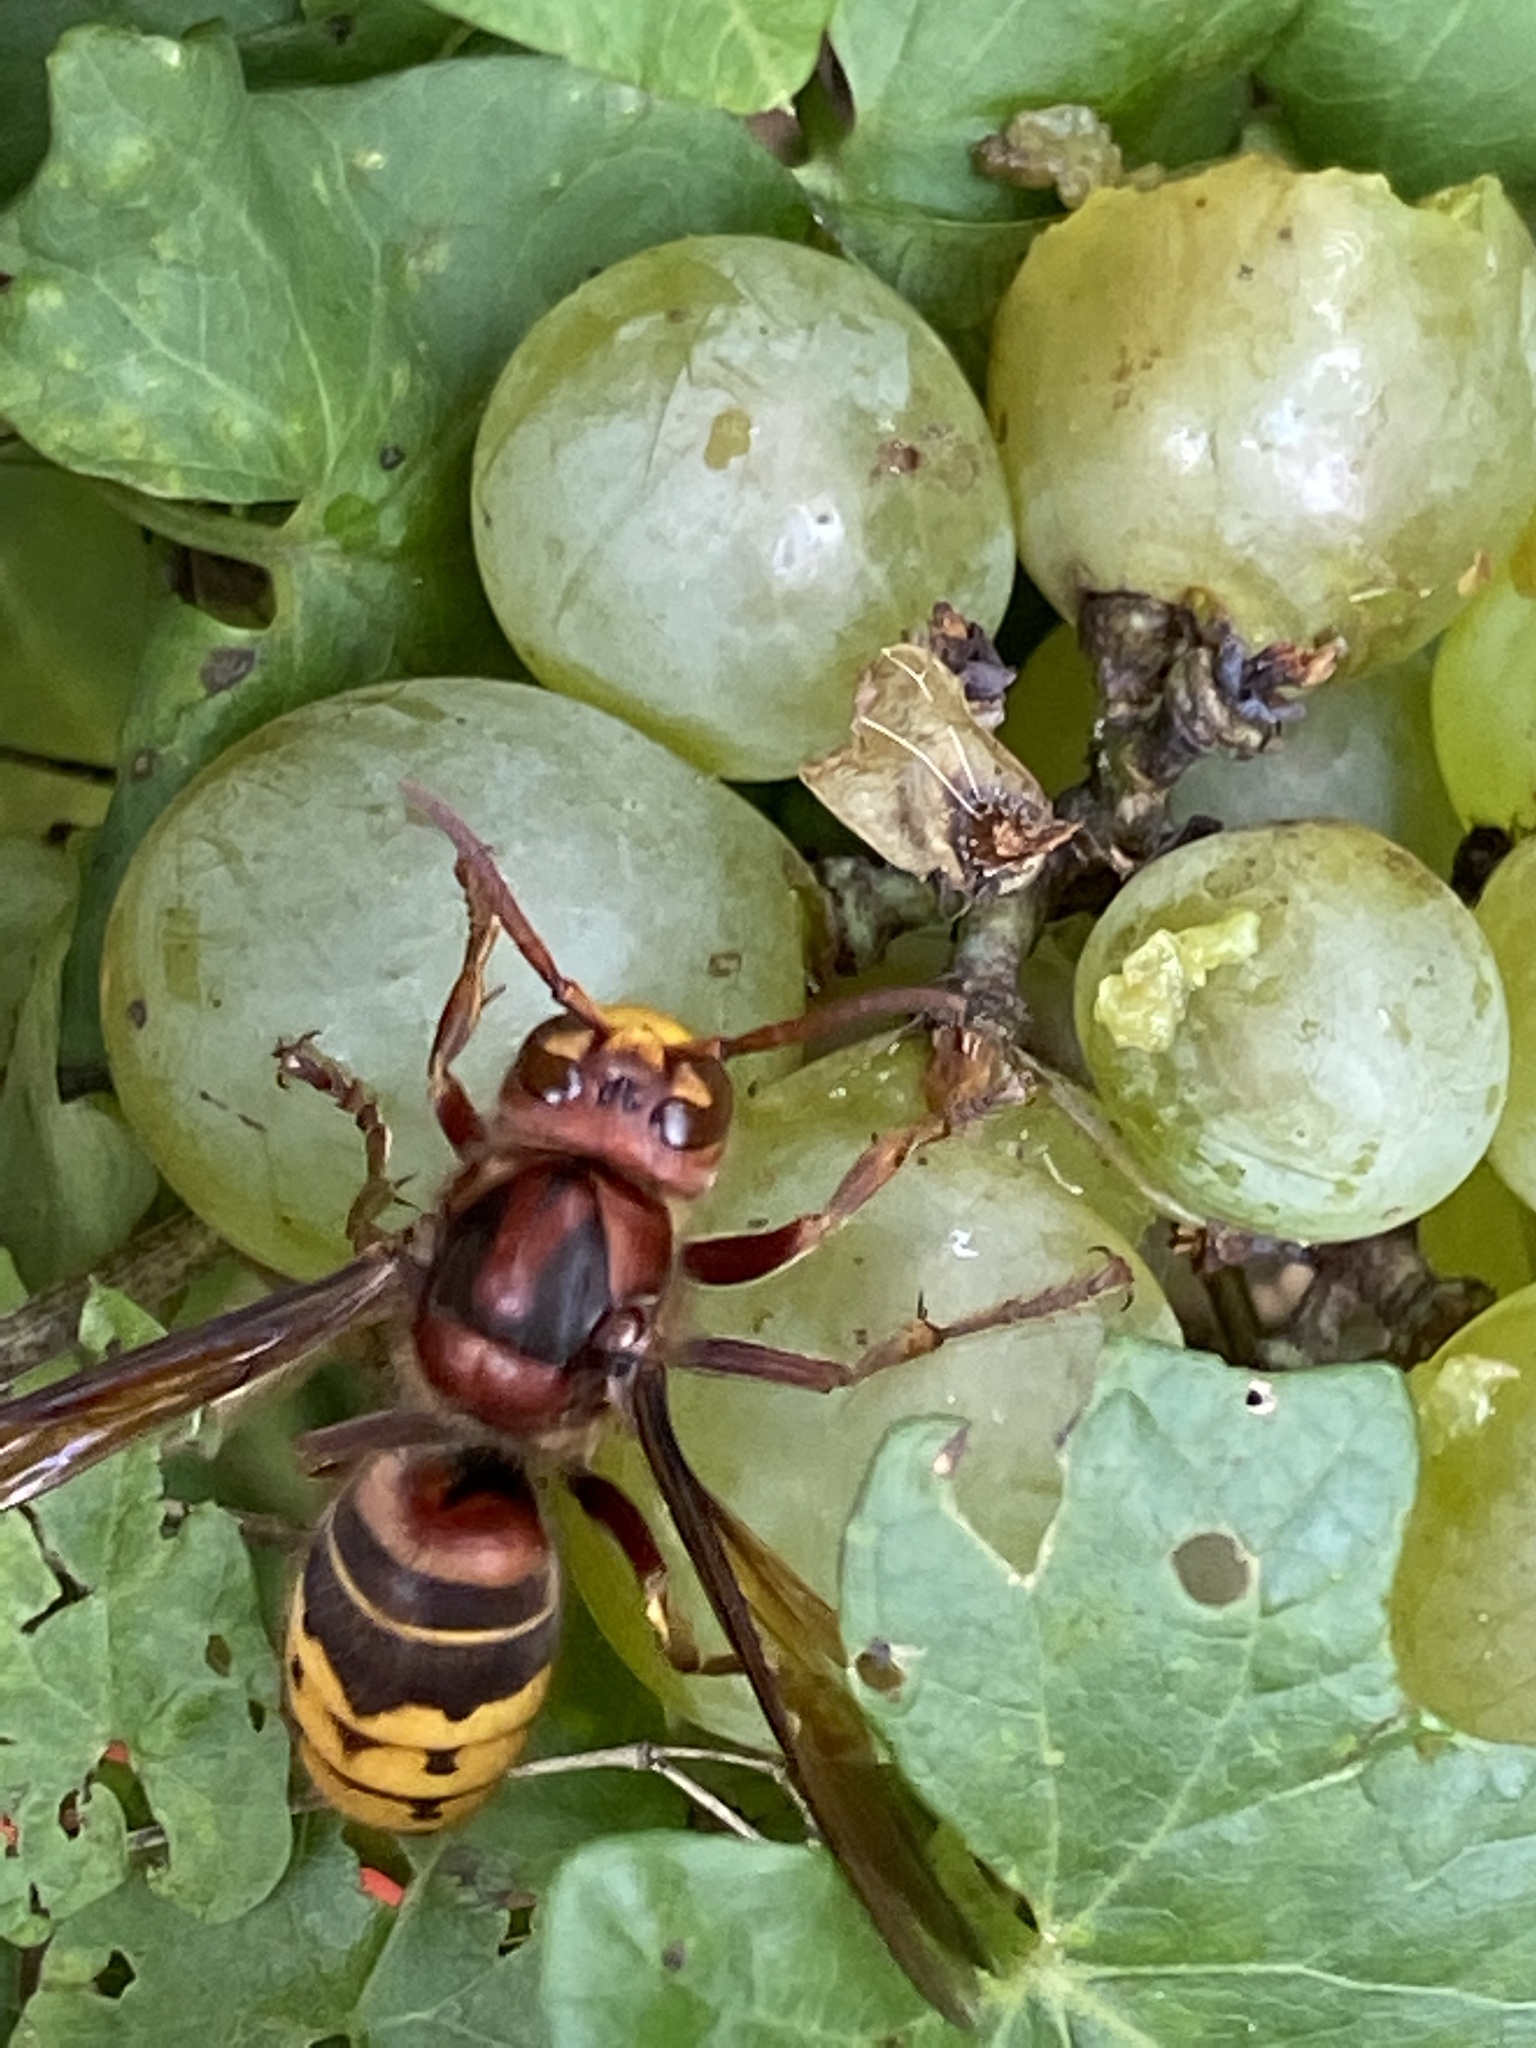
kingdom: Animalia
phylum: Arthropoda
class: Insecta
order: Hymenoptera
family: Vespidae
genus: Vespa
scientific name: Vespa crabro
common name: Hornet
